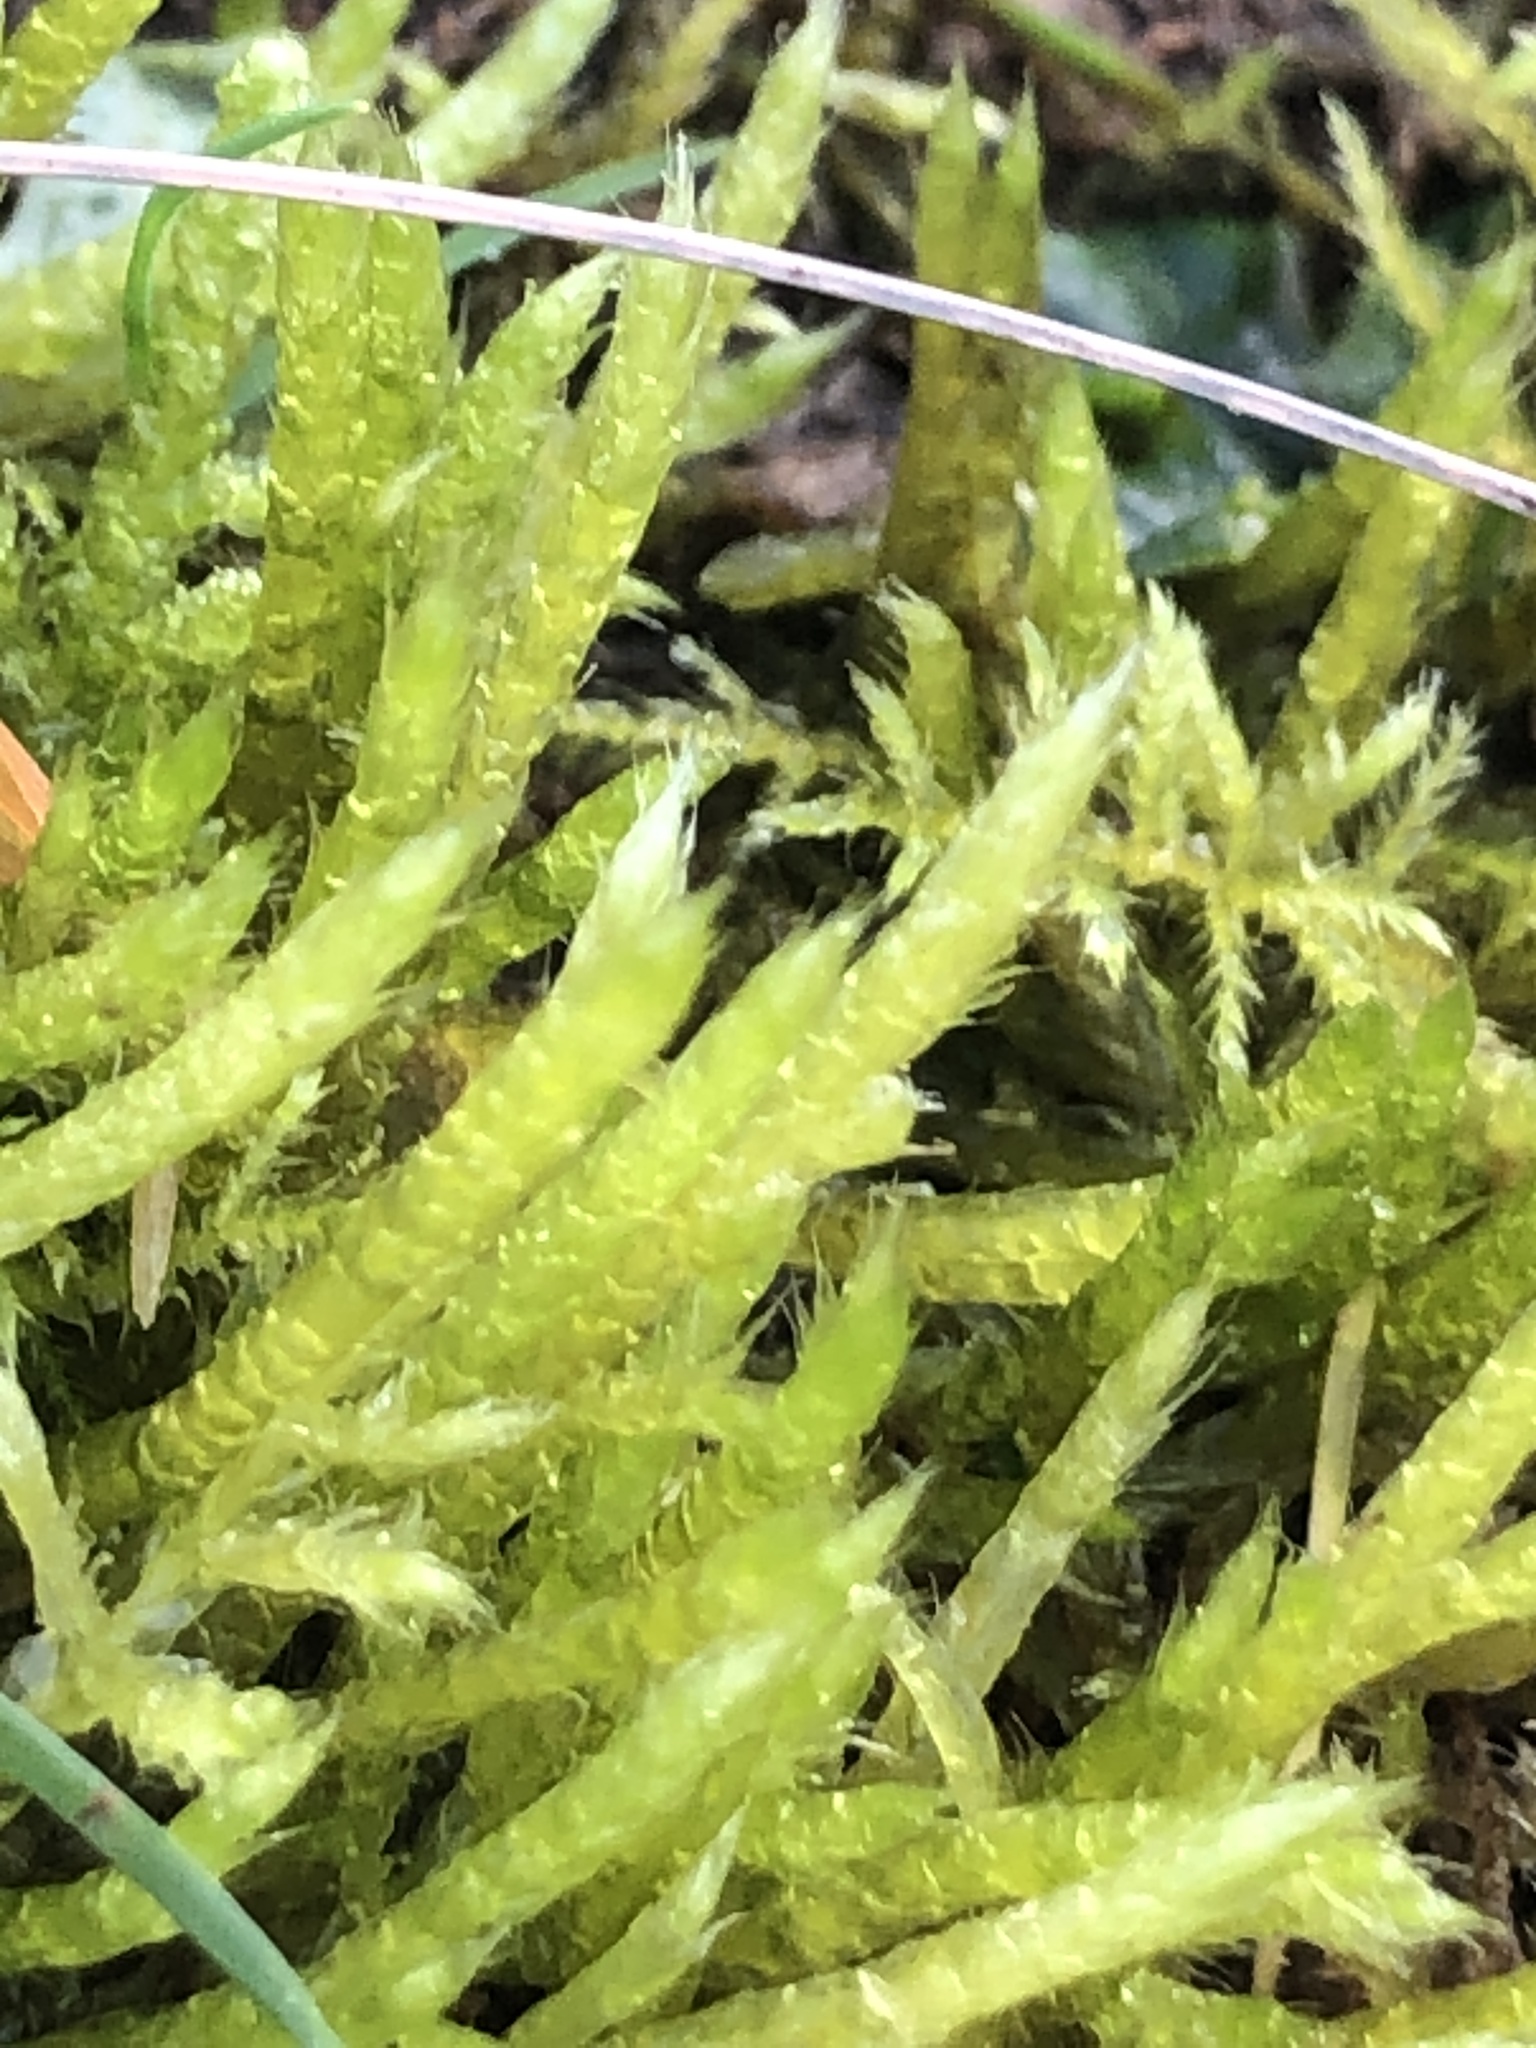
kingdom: Plantae
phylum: Bryophyta
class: Bryopsida
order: Hypnales
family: Brachytheciaceae
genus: Brachythecium
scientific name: Brachythecium albicans
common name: Whitish ragged moss
